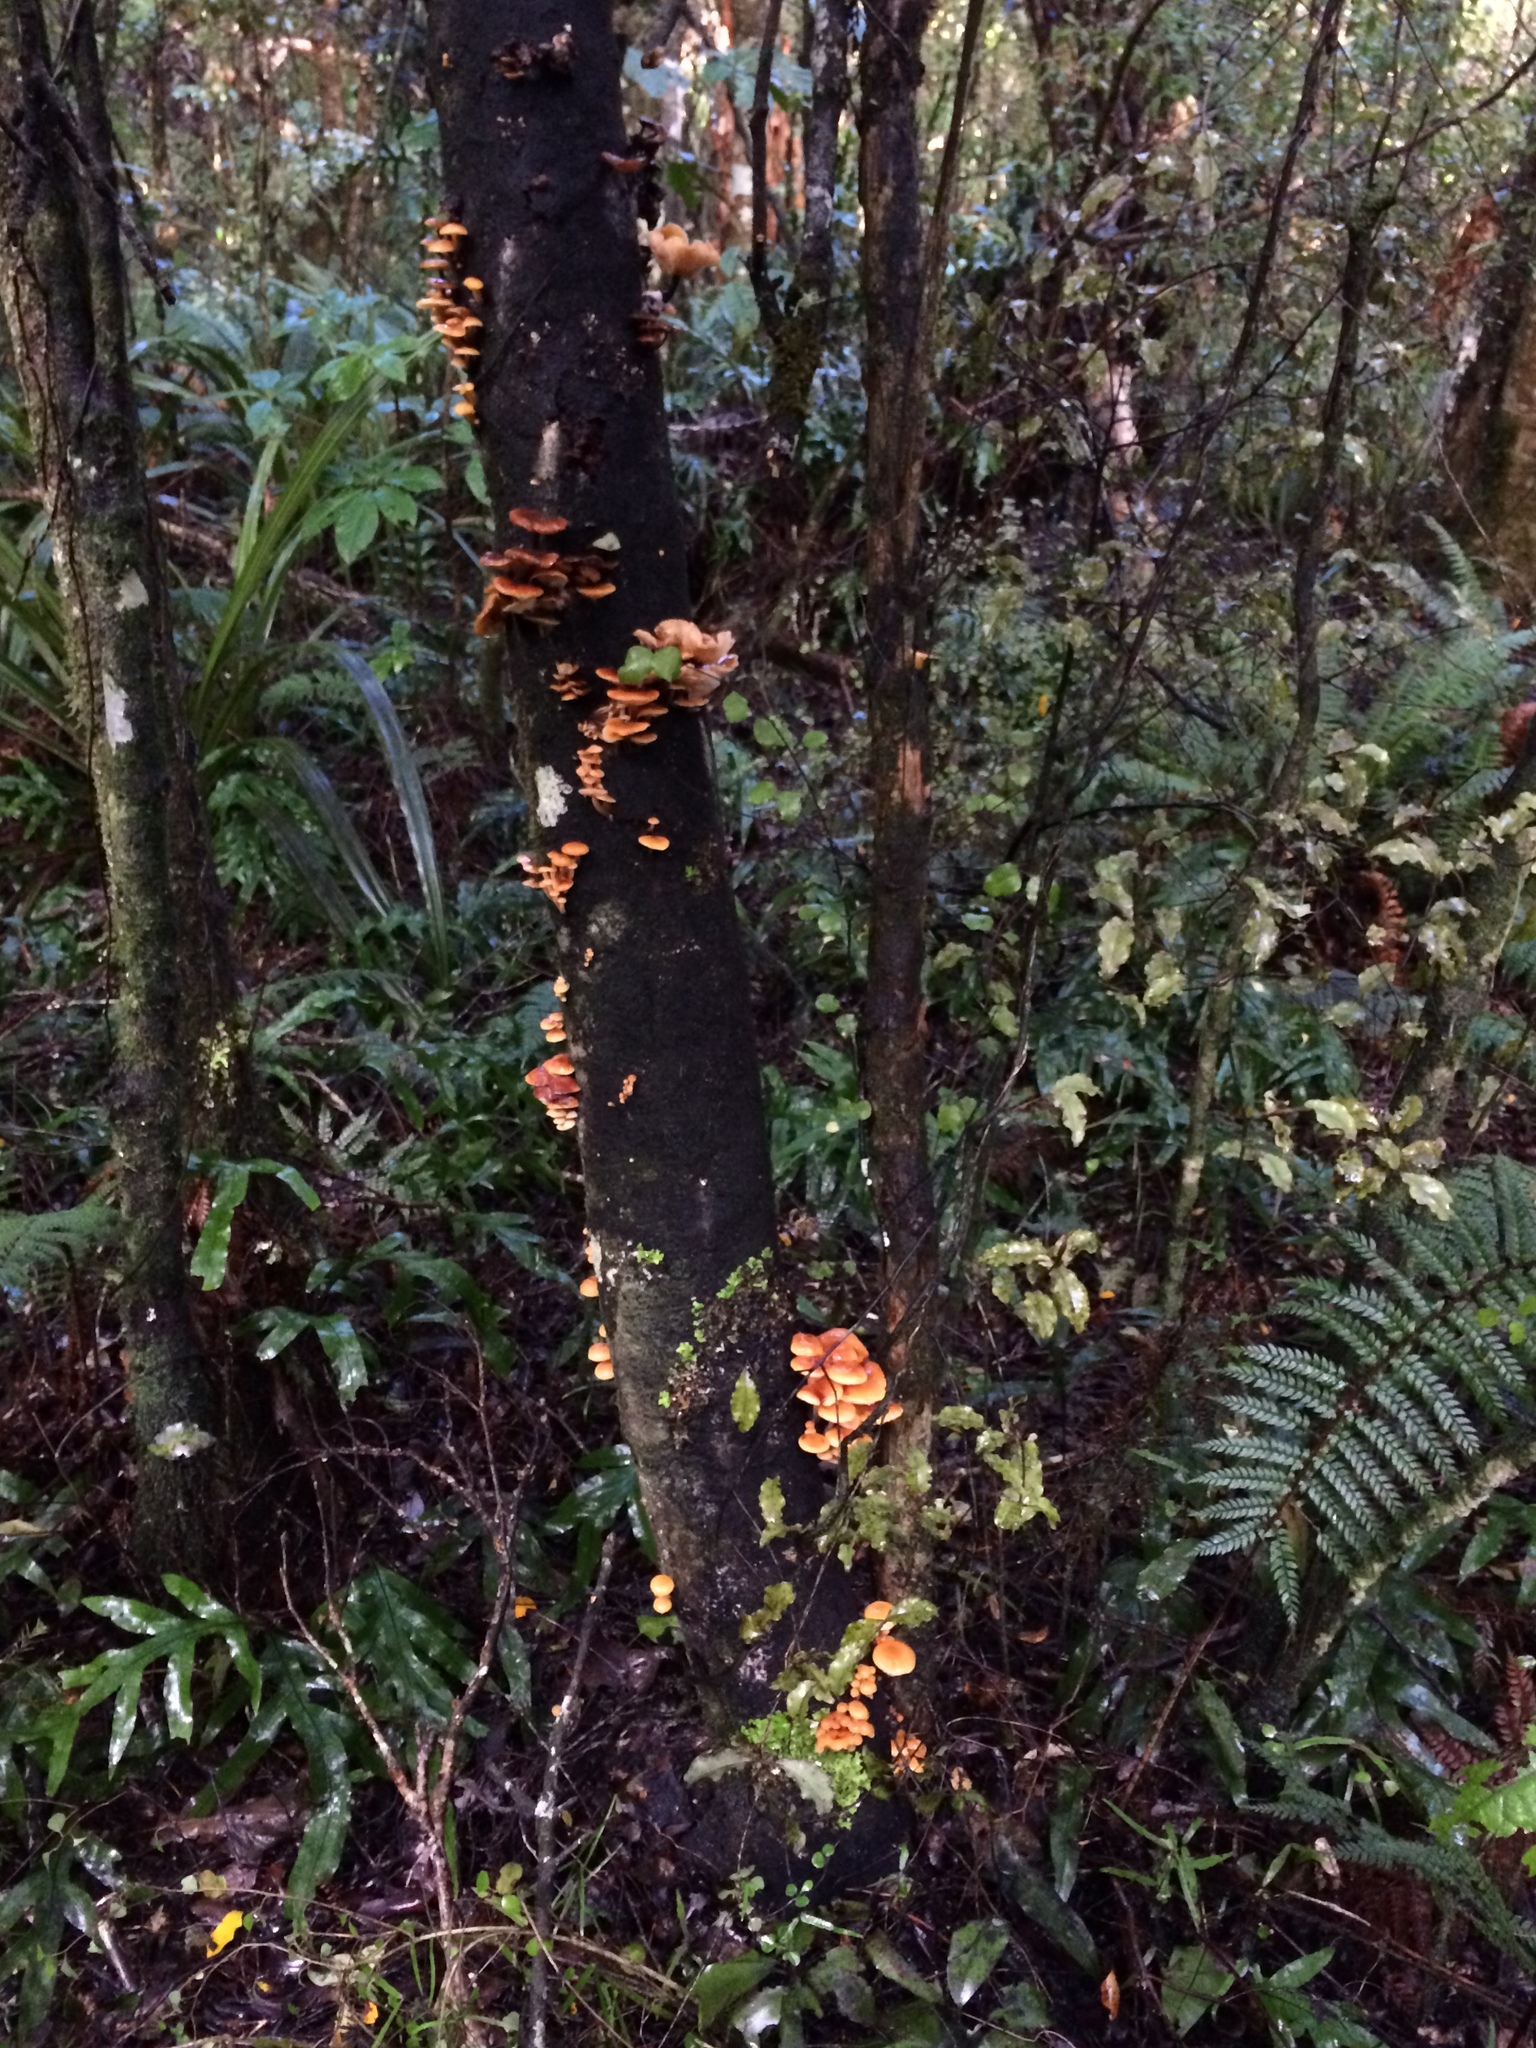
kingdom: Fungi
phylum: Basidiomycota
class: Agaricomycetes
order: Agaricales
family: Physalacriaceae
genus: Flammulina
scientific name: Flammulina velutipes
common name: Velvet shank
